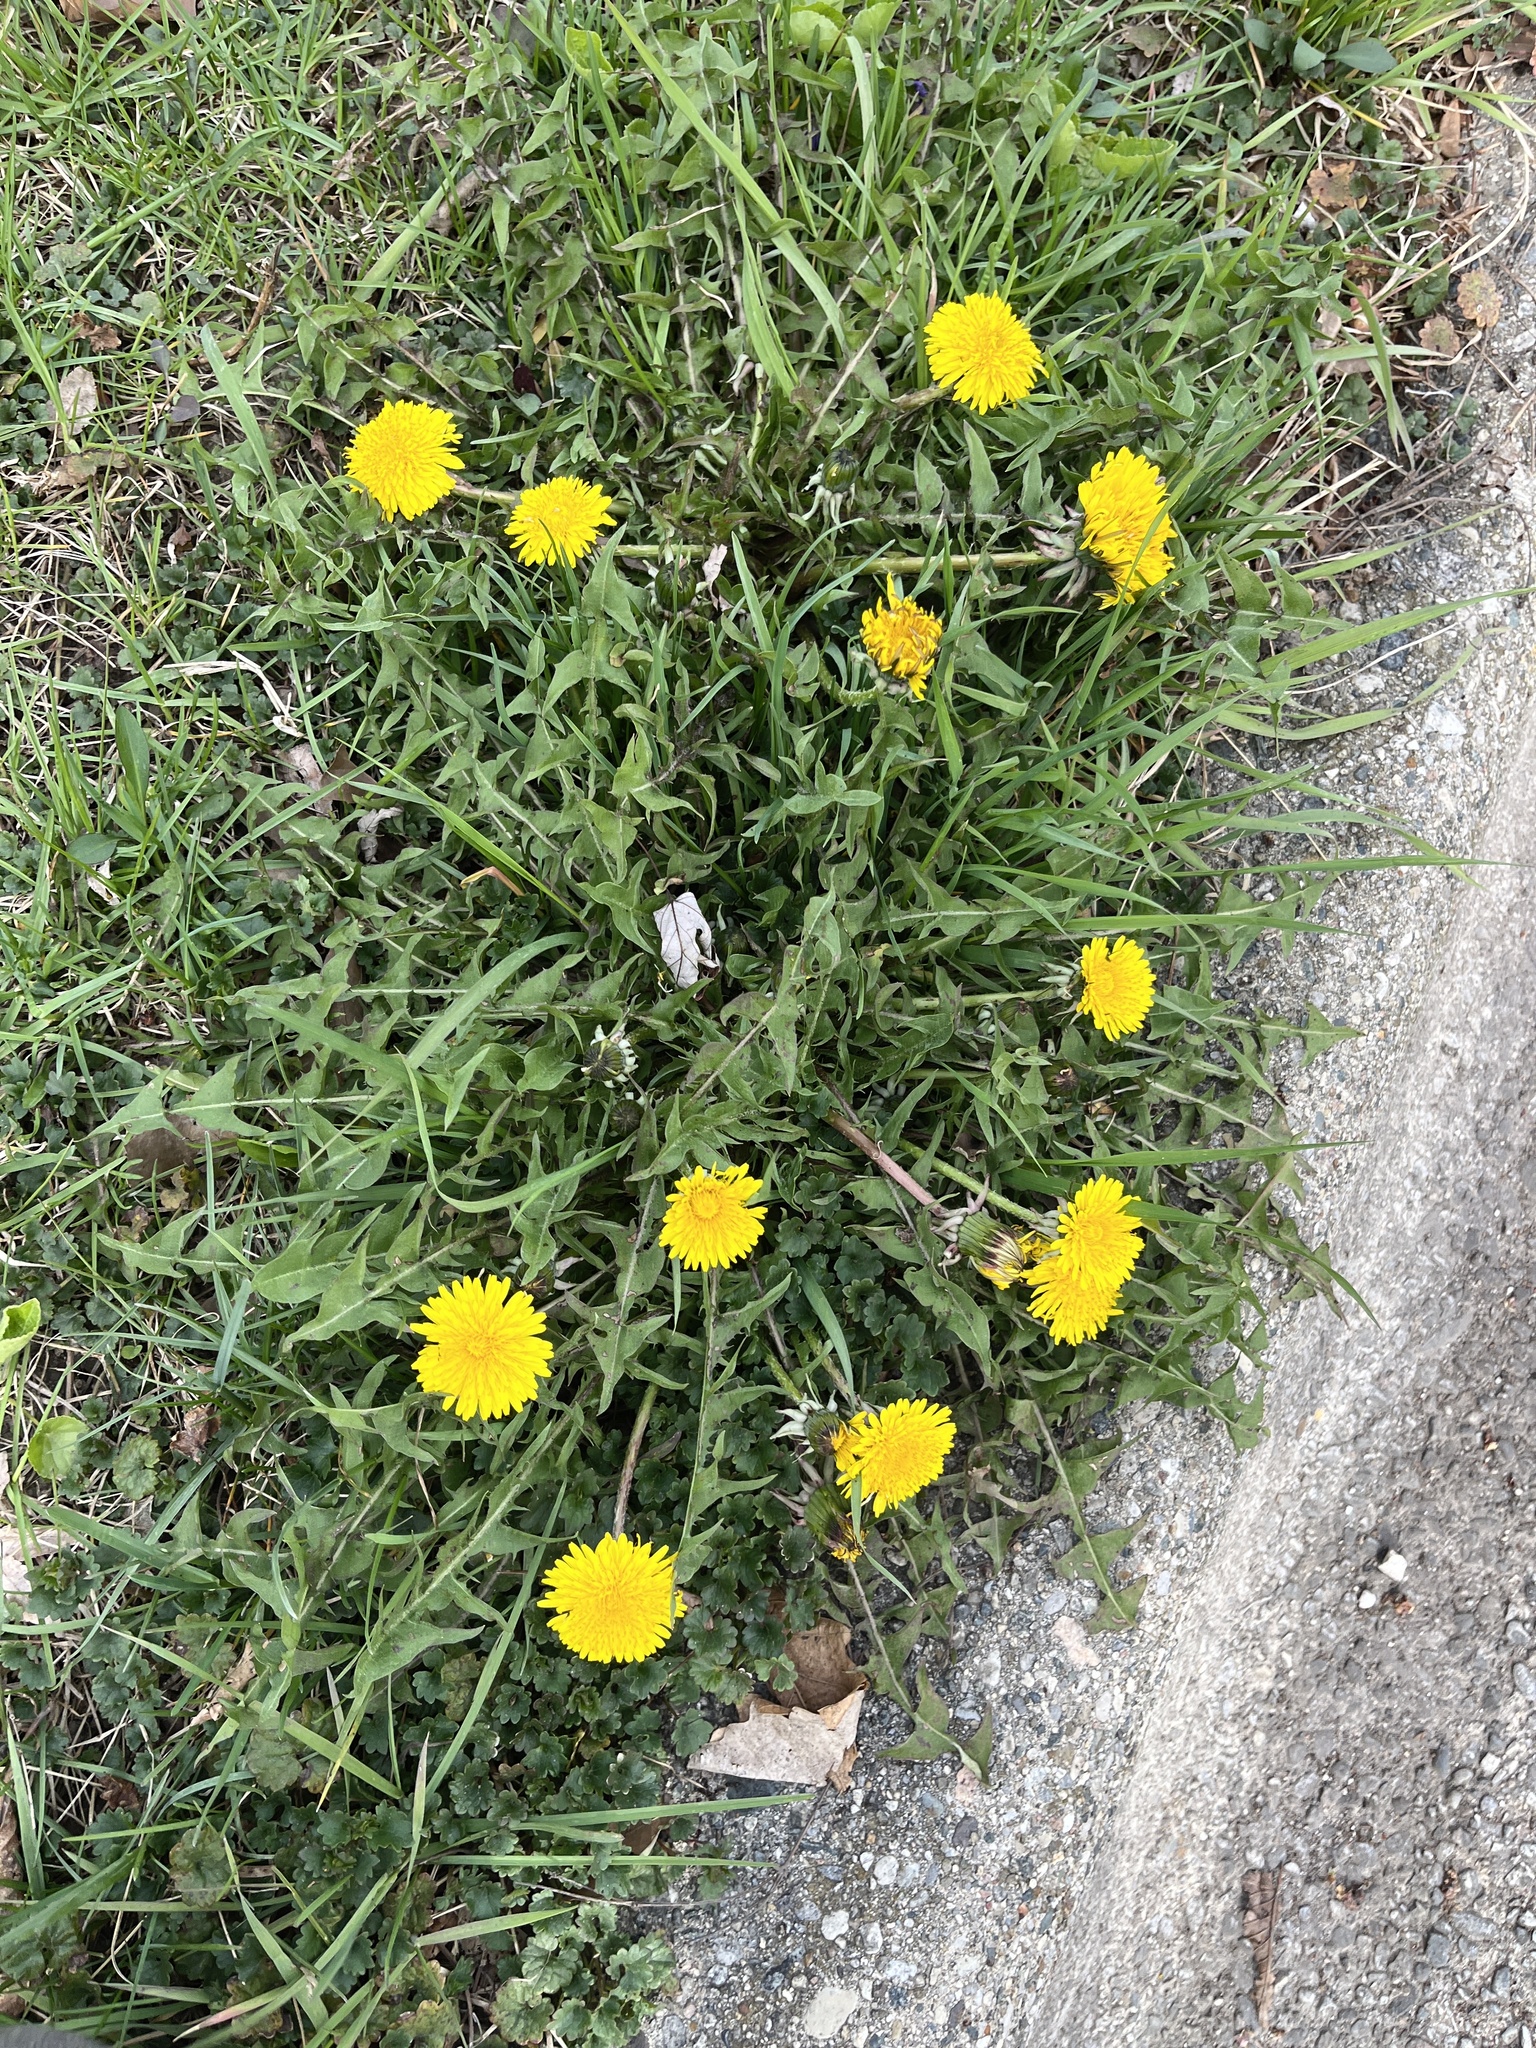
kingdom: Plantae
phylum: Tracheophyta
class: Magnoliopsida
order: Asterales
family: Asteraceae
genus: Taraxacum
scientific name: Taraxacum officinale
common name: Common dandelion
